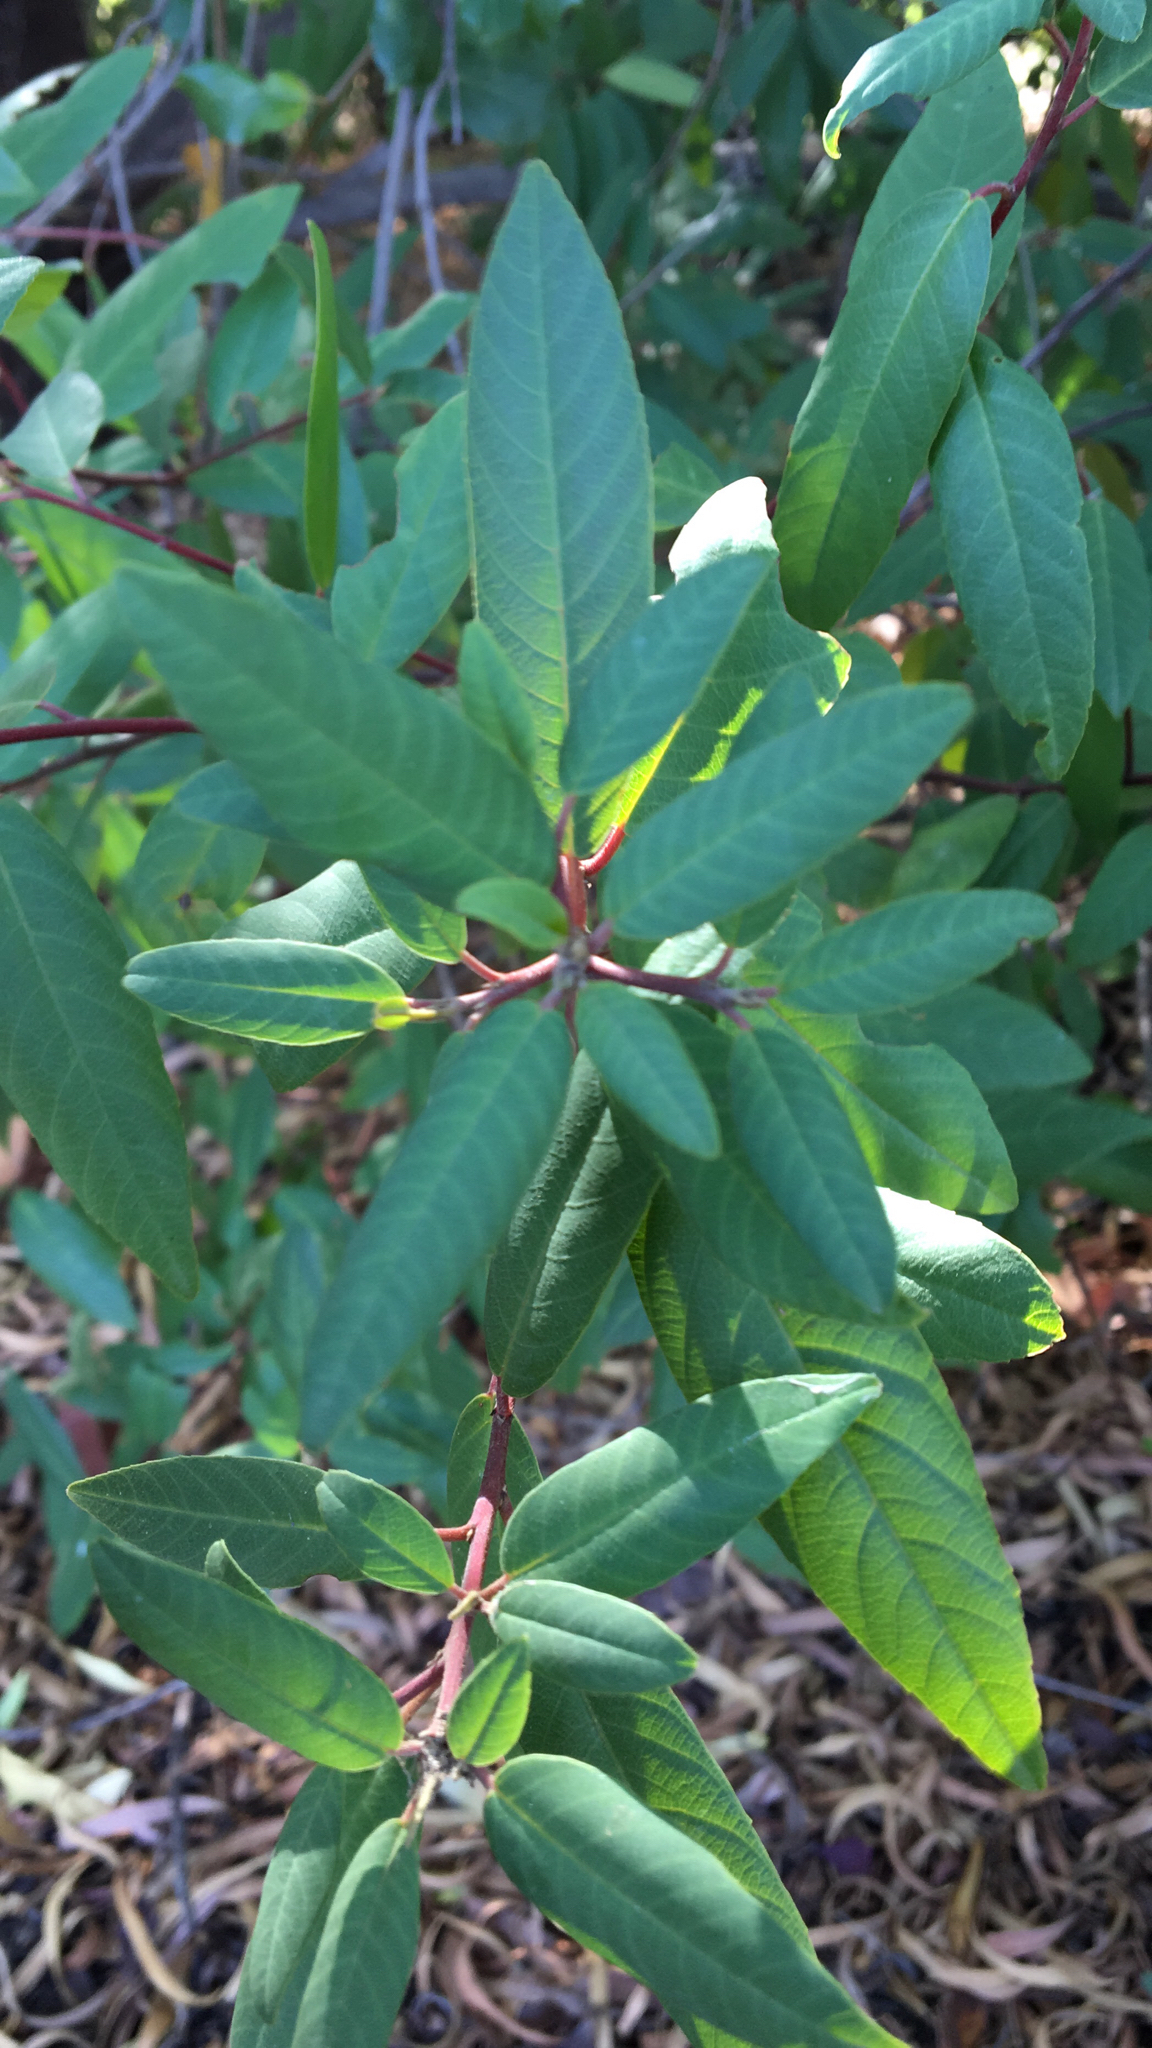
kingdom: Plantae
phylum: Tracheophyta
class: Magnoliopsida
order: Rosales
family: Rhamnaceae
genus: Frangula
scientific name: Frangula californica
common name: California buckthorn
